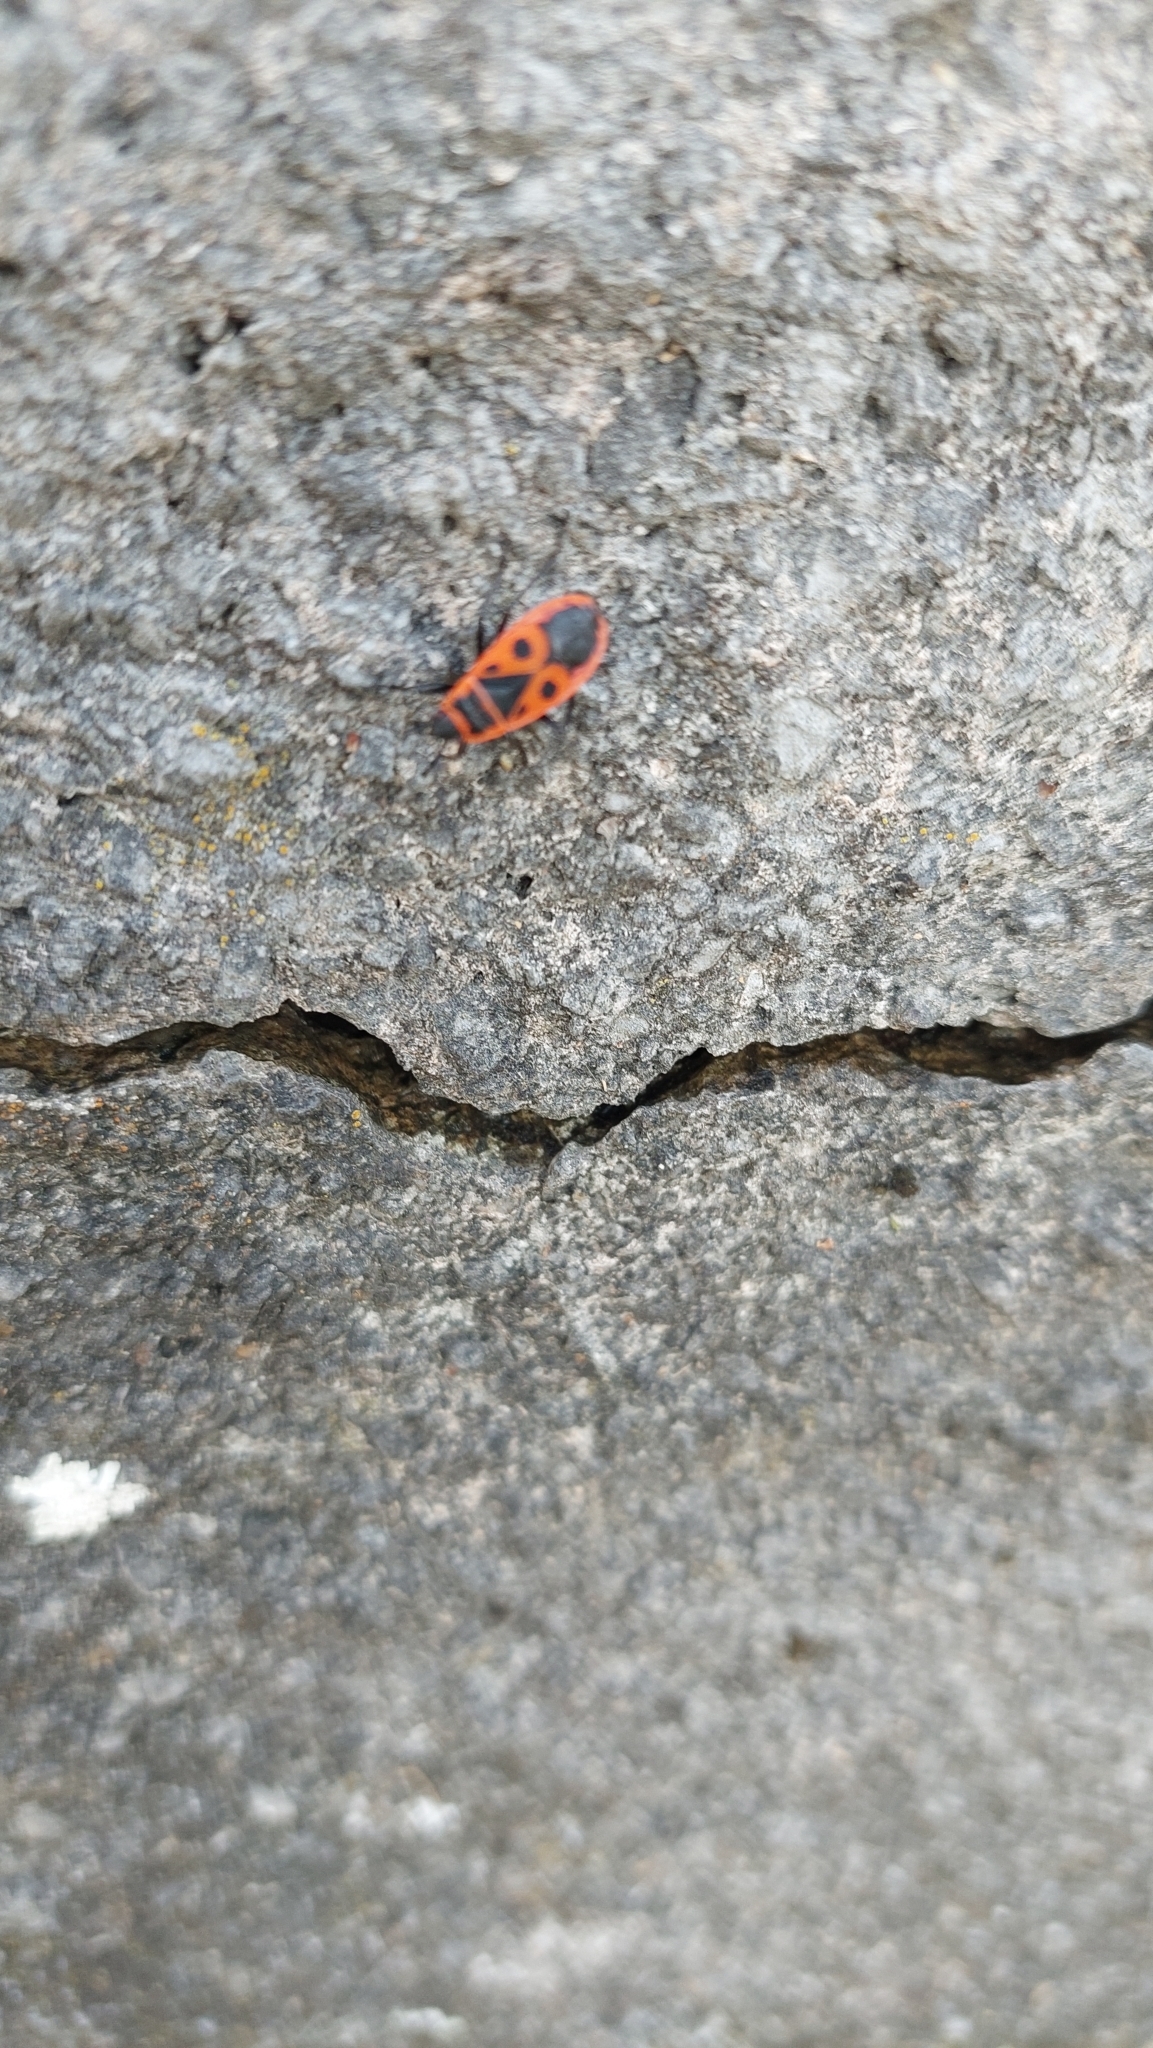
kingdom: Animalia
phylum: Arthropoda
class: Insecta
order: Hemiptera
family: Pyrrhocoridae
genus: Pyrrhocoris
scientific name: Pyrrhocoris apterus
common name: Firebug
